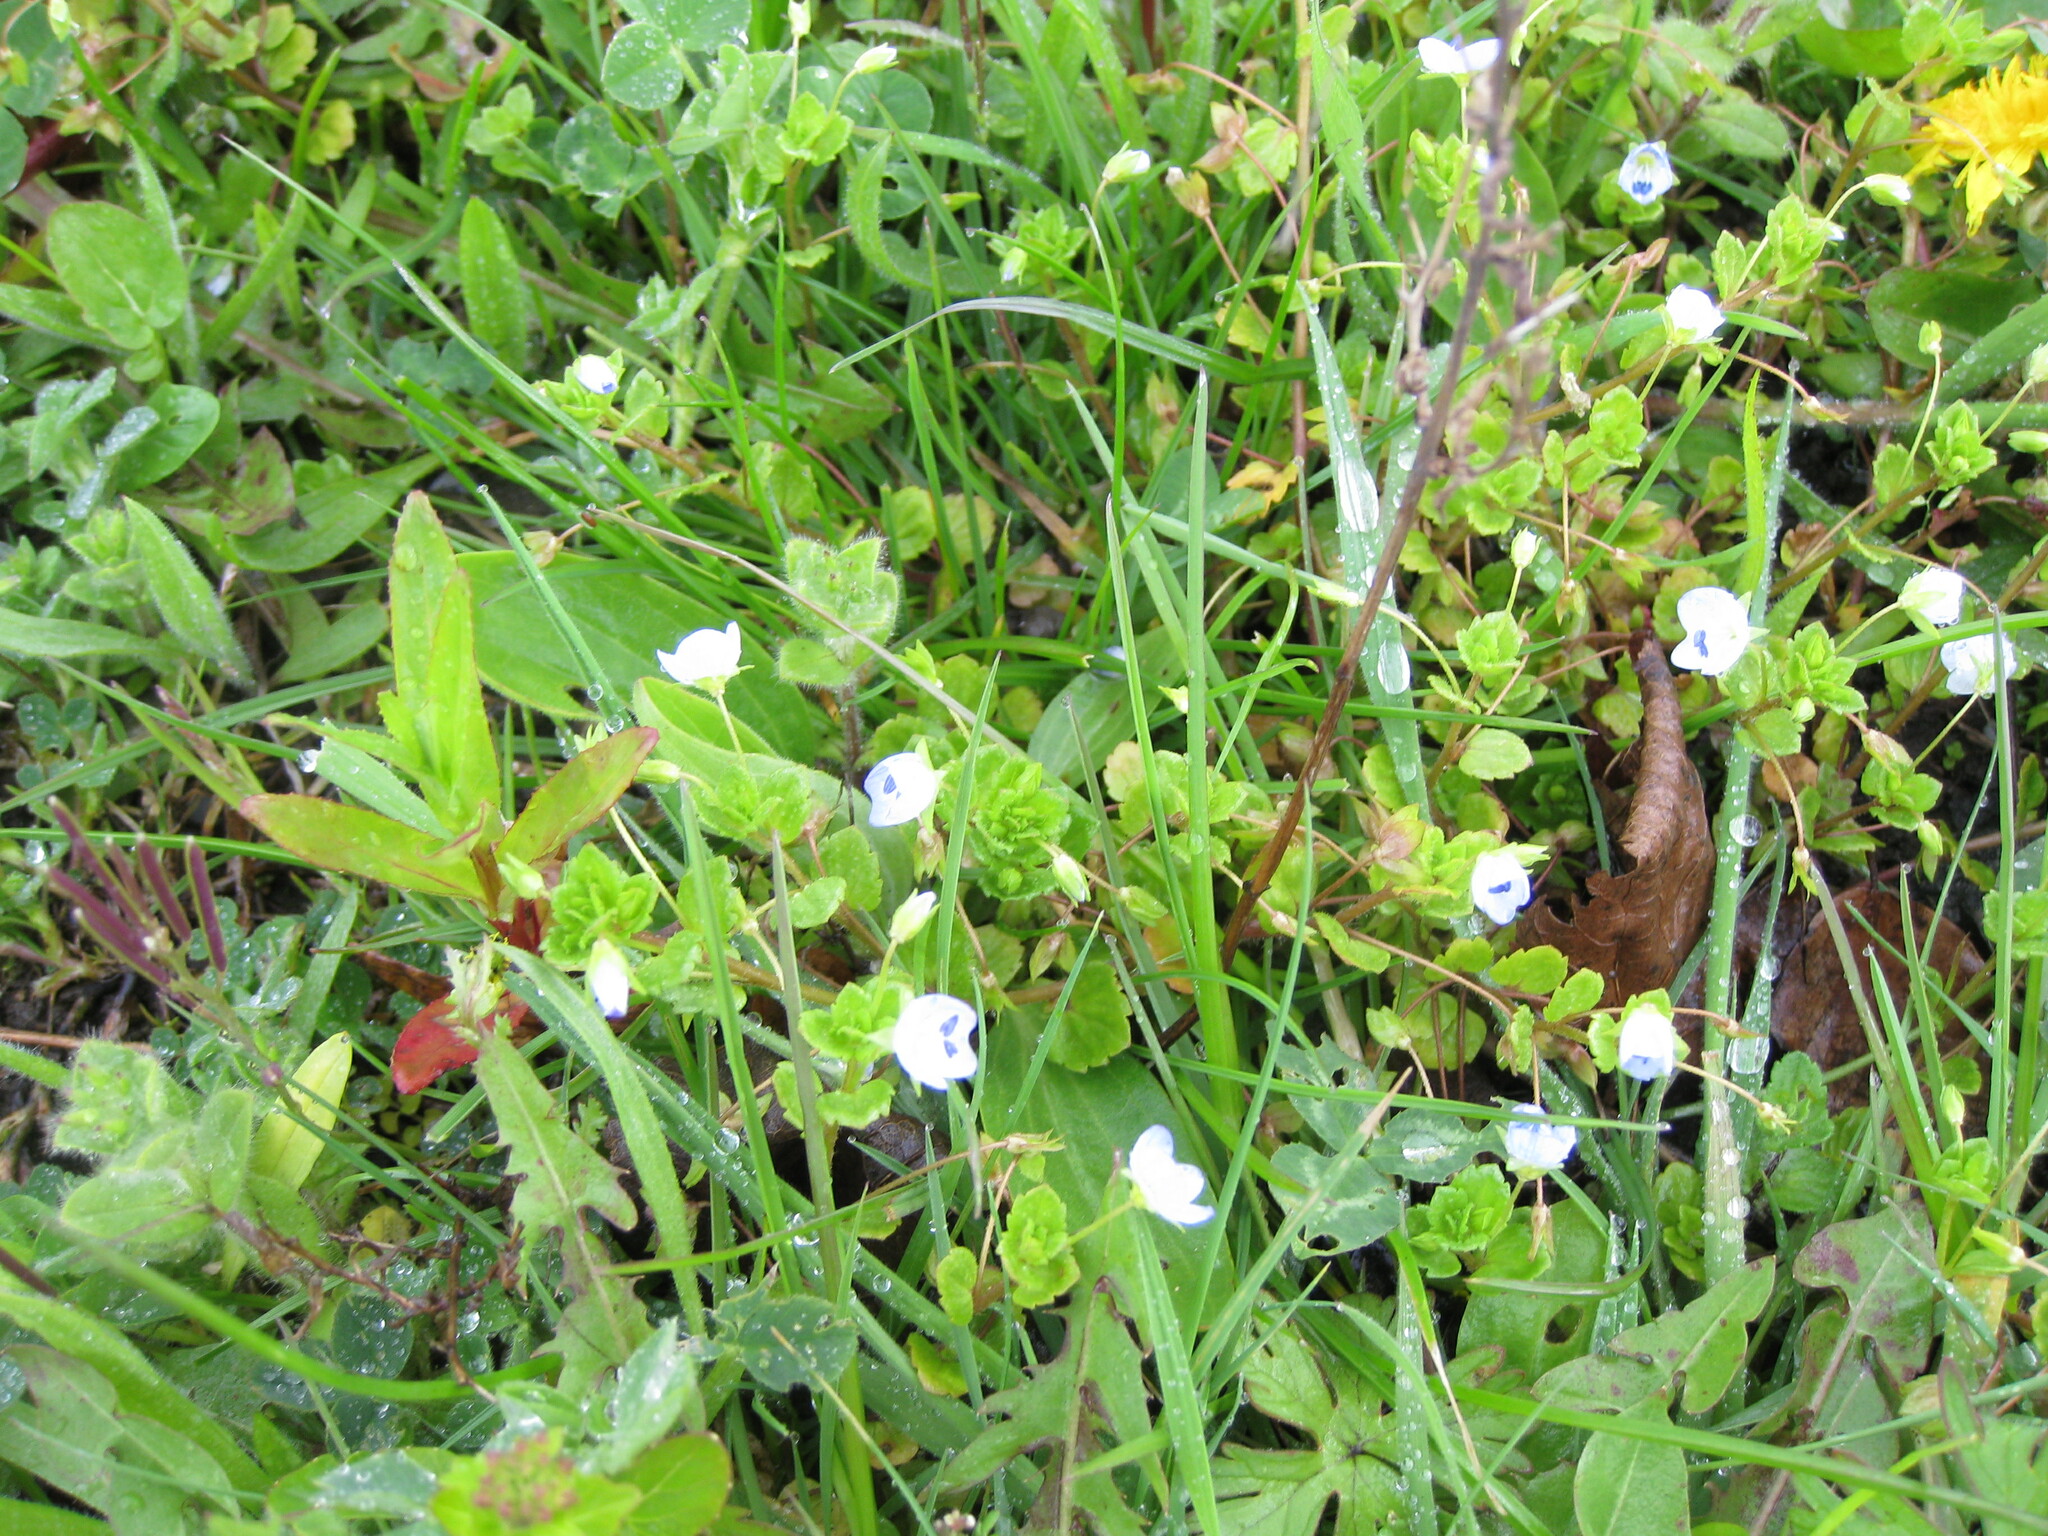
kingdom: Plantae
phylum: Tracheophyta
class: Magnoliopsida
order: Lamiales
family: Plantaginaceae
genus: Veronica
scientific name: Veronica persica
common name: Common field-speedwell
